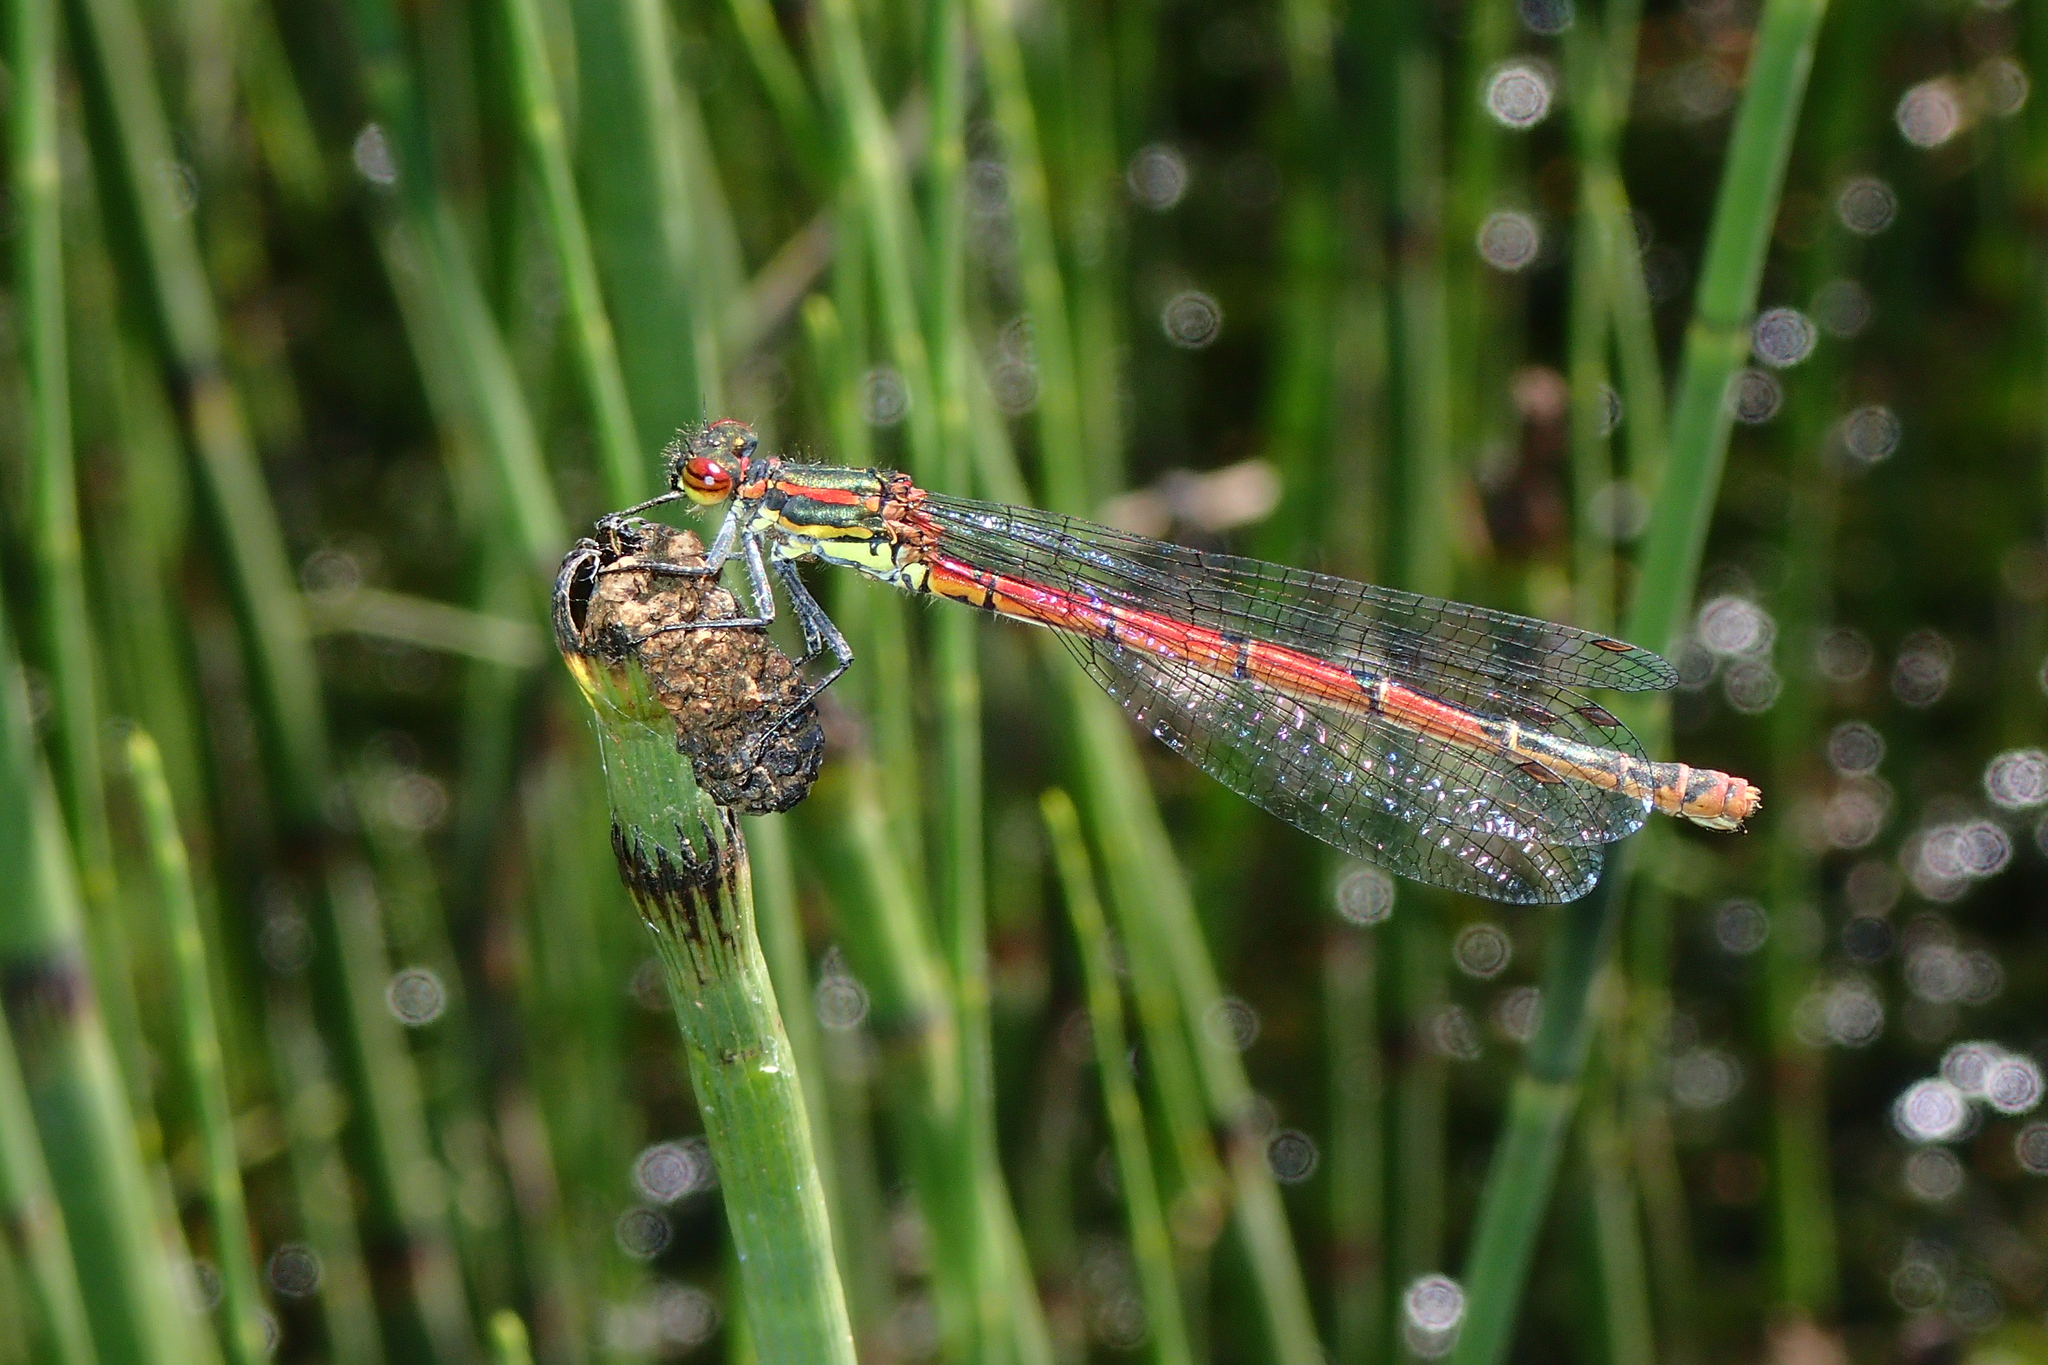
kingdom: Animalia
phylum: Arthropoda
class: Insecta
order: Odonata
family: Coenagrionidae
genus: Pyrrhosoma
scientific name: Pyrrhosoma nymphula
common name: Large red damsel
